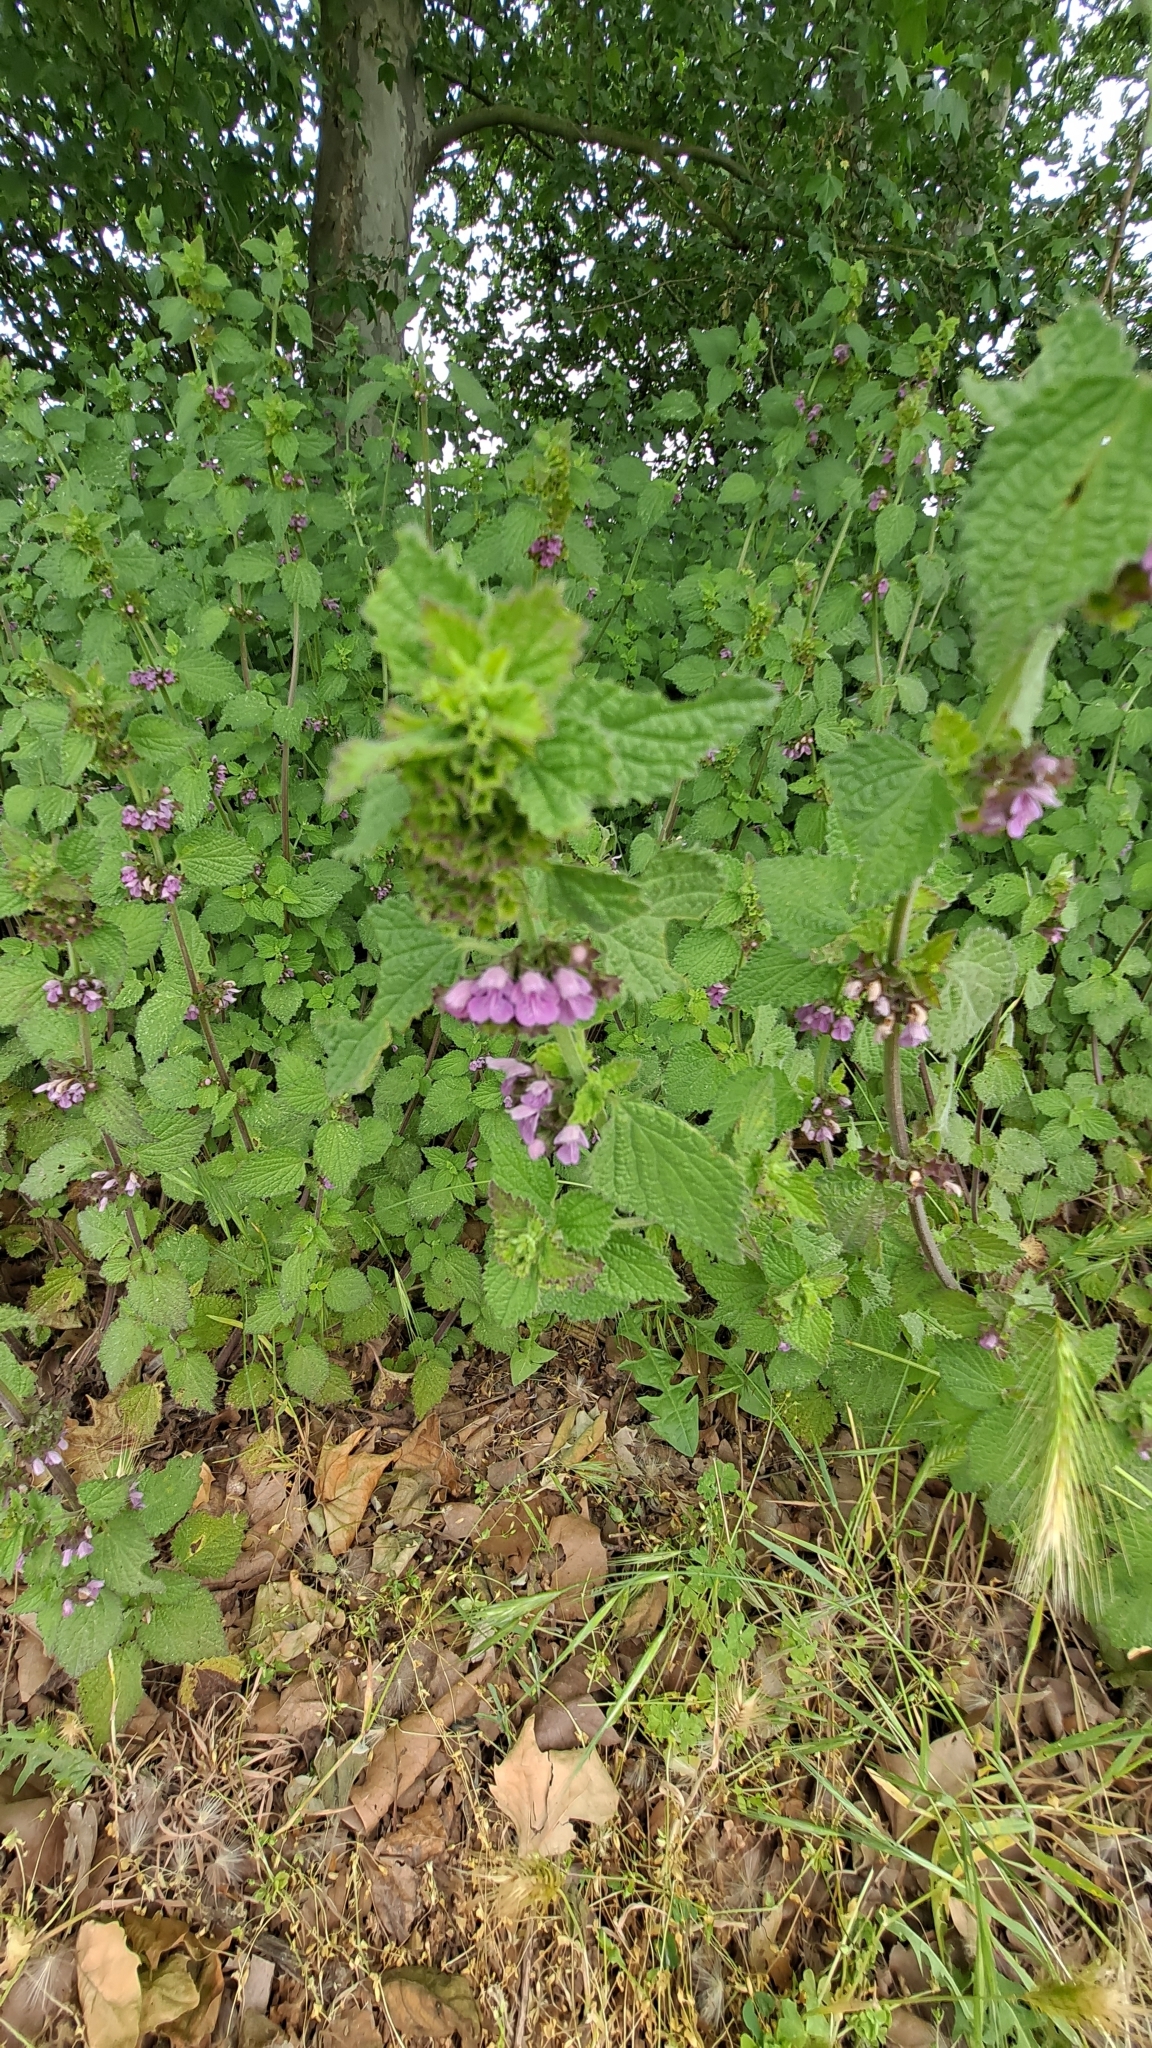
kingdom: Plantae
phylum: Tracheophyta
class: Magnoliopsida
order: Lamiales
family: Lamiaceae
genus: Ballota
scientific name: Ballota nigra
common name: Black horehound
